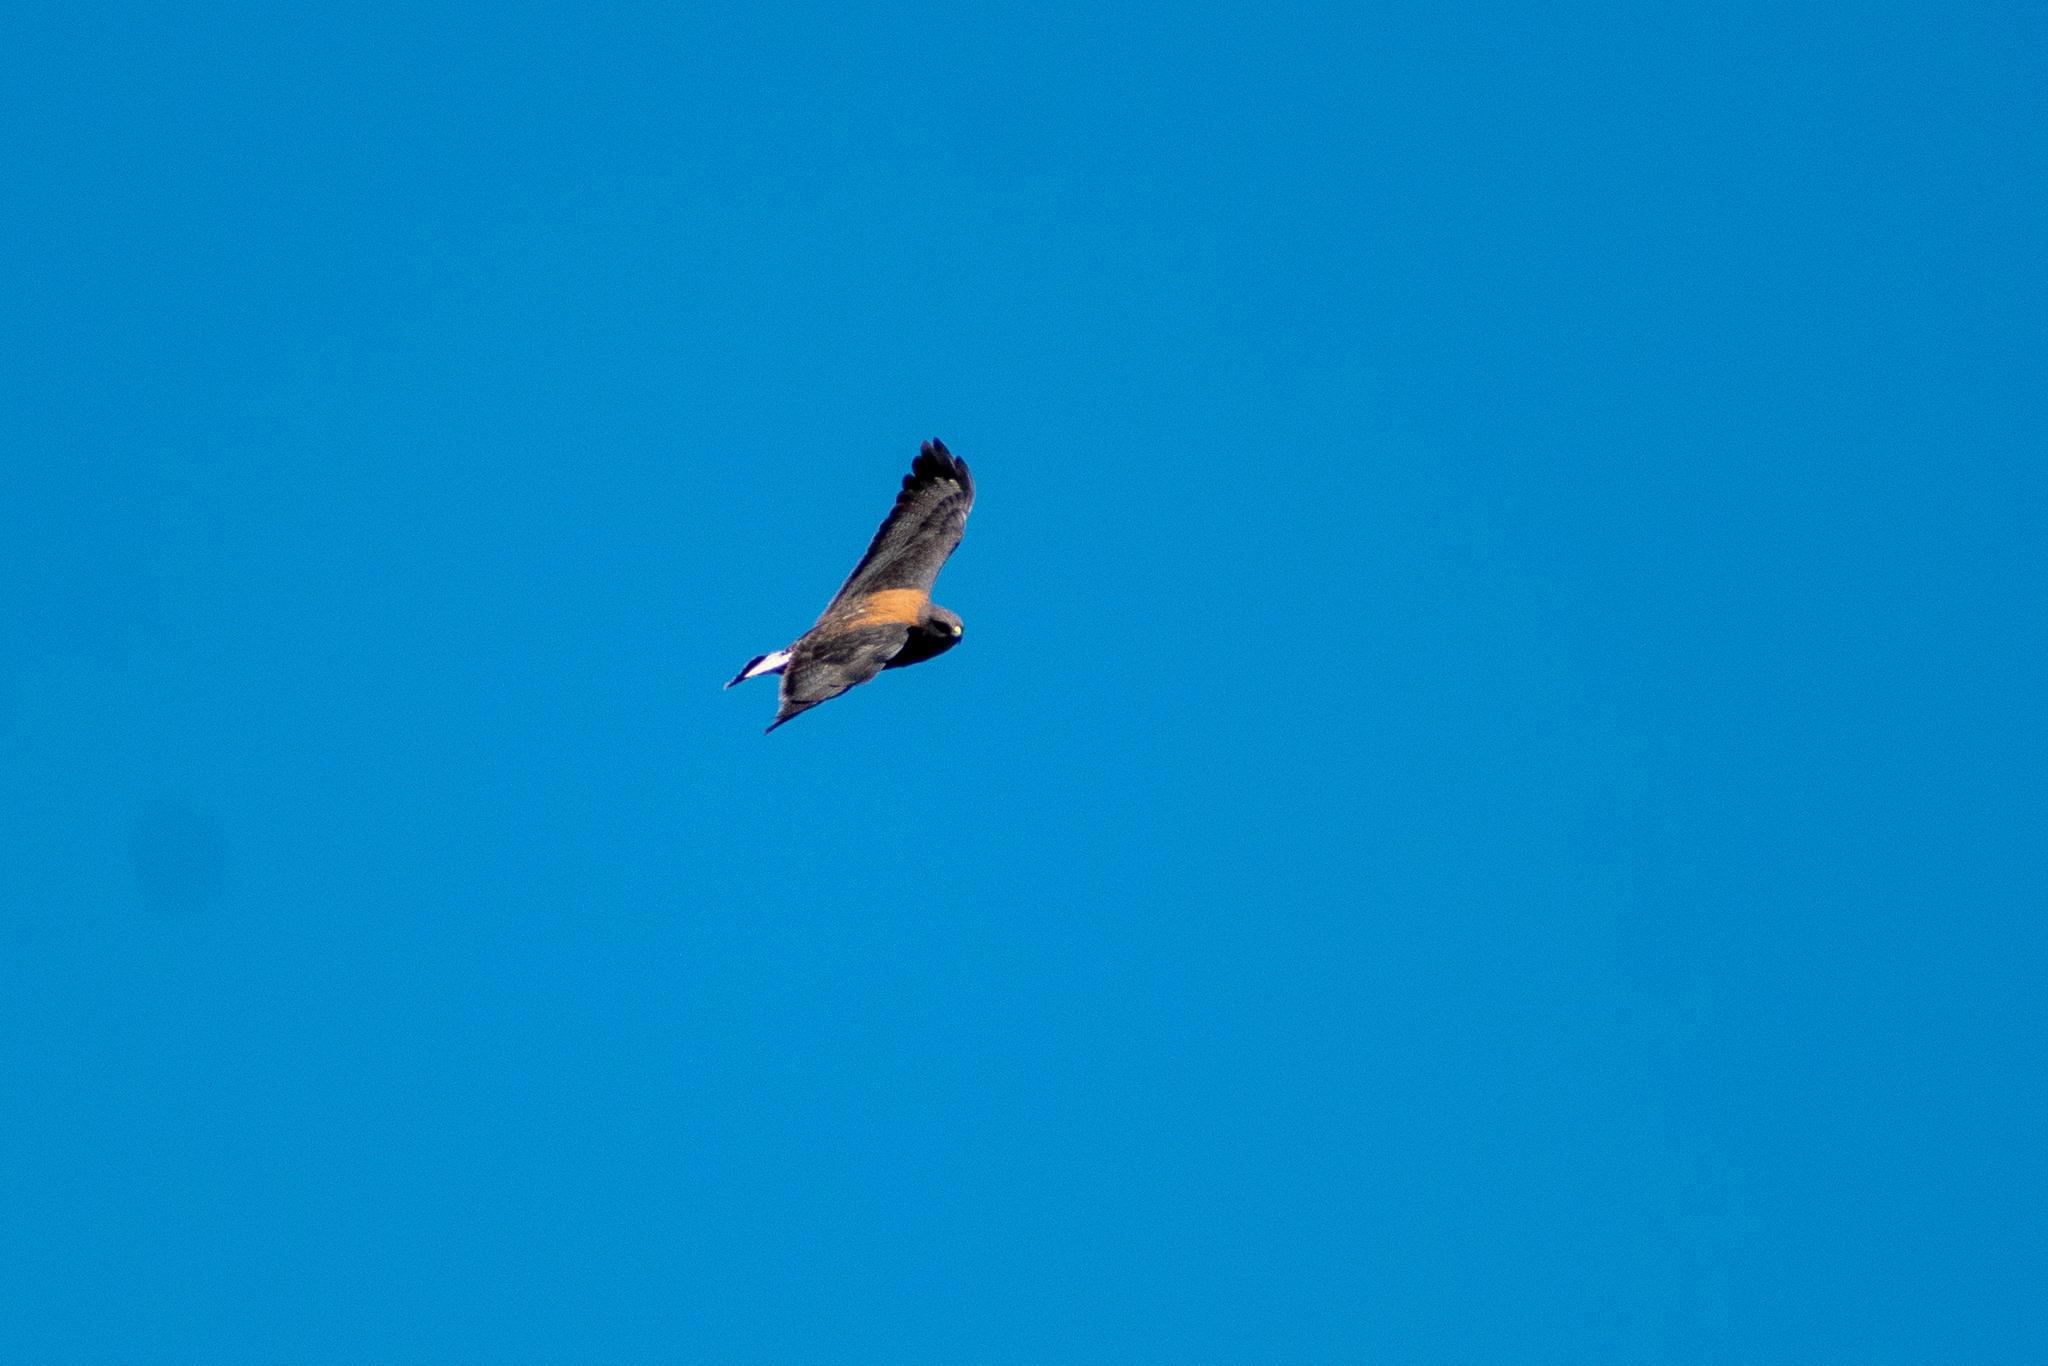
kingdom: Animalia
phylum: Chordata
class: Aves
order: Accipitriformes
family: Accipitridae
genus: Buteo
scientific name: Buteo polyosoma
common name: Variable hawk
